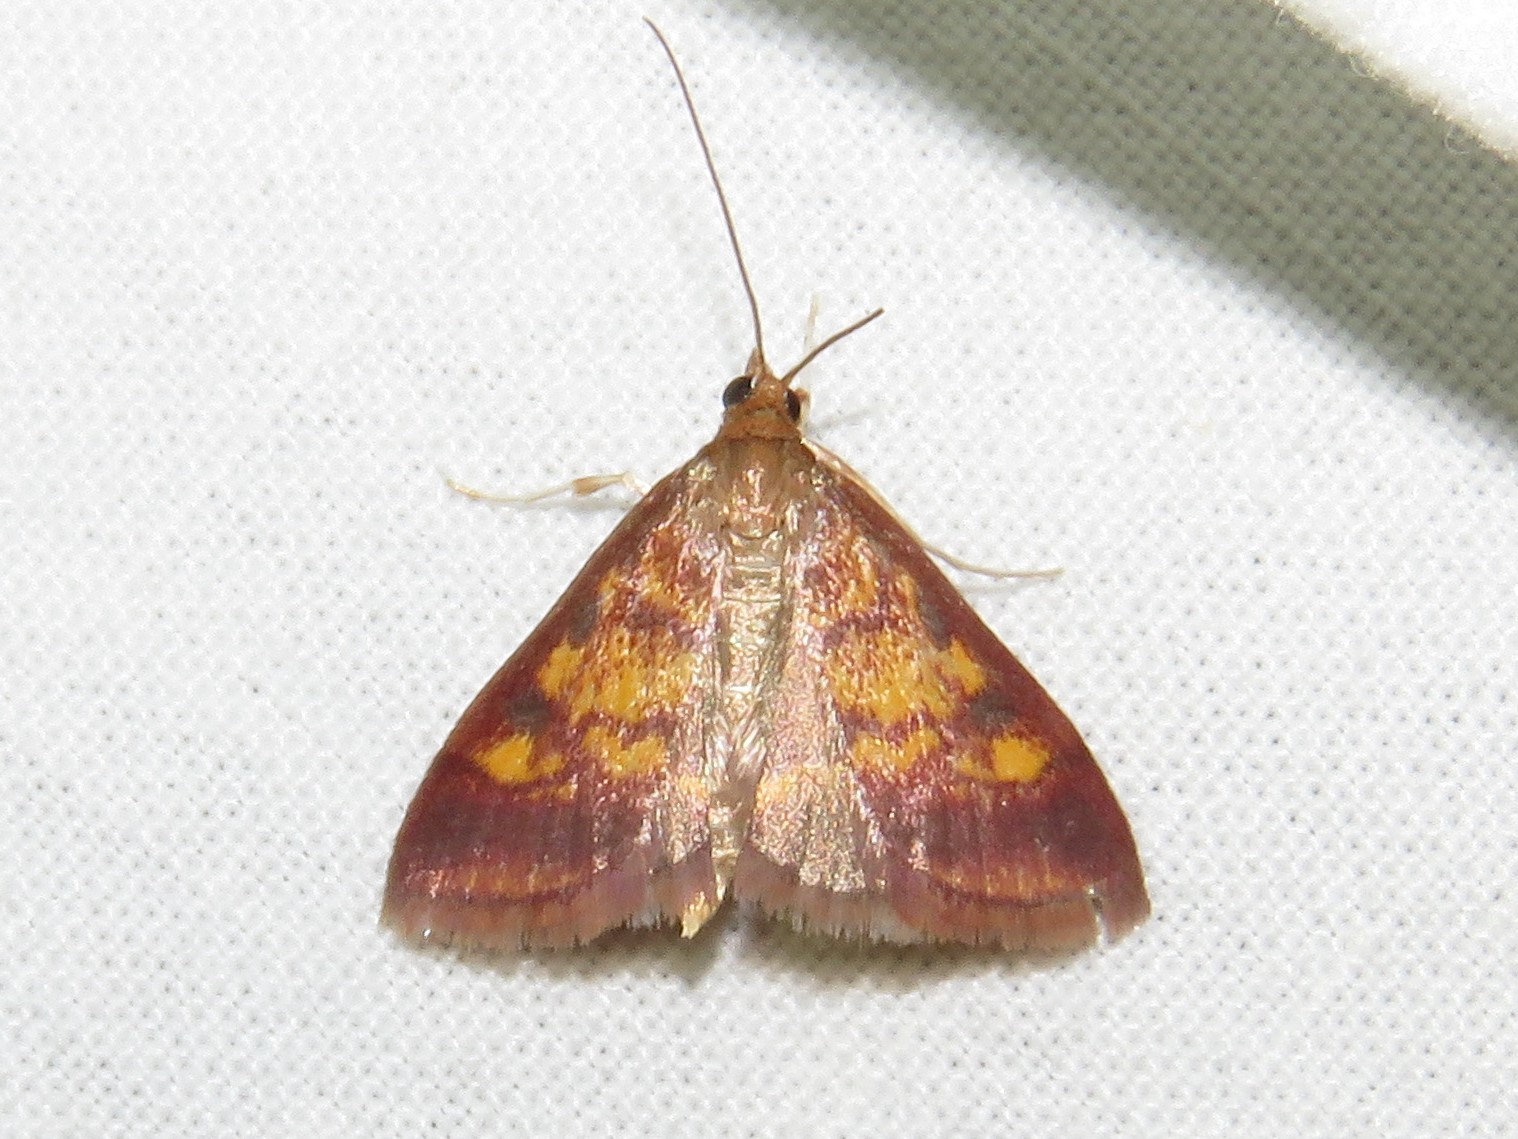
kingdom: Animalia
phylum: Arthropoda
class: Insecta
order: Lepidoptera
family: Crambidae
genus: Pyrausta
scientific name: Pyrausta acrionalis
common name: Mint-loving pyrausta moth
